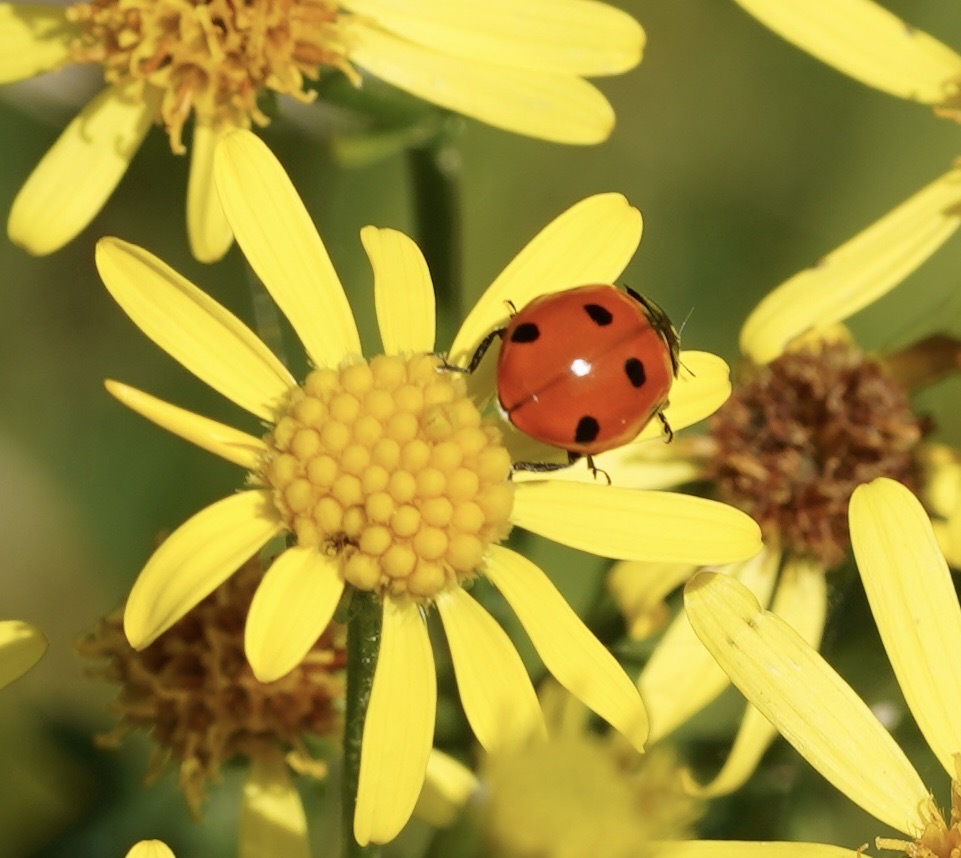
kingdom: Animalia
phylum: Arthropoda
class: Insecta
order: Coleoptera
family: Coccinellidae
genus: Coccinella
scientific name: Coccinella septempunctata
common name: Sevenspotted lady beetle
